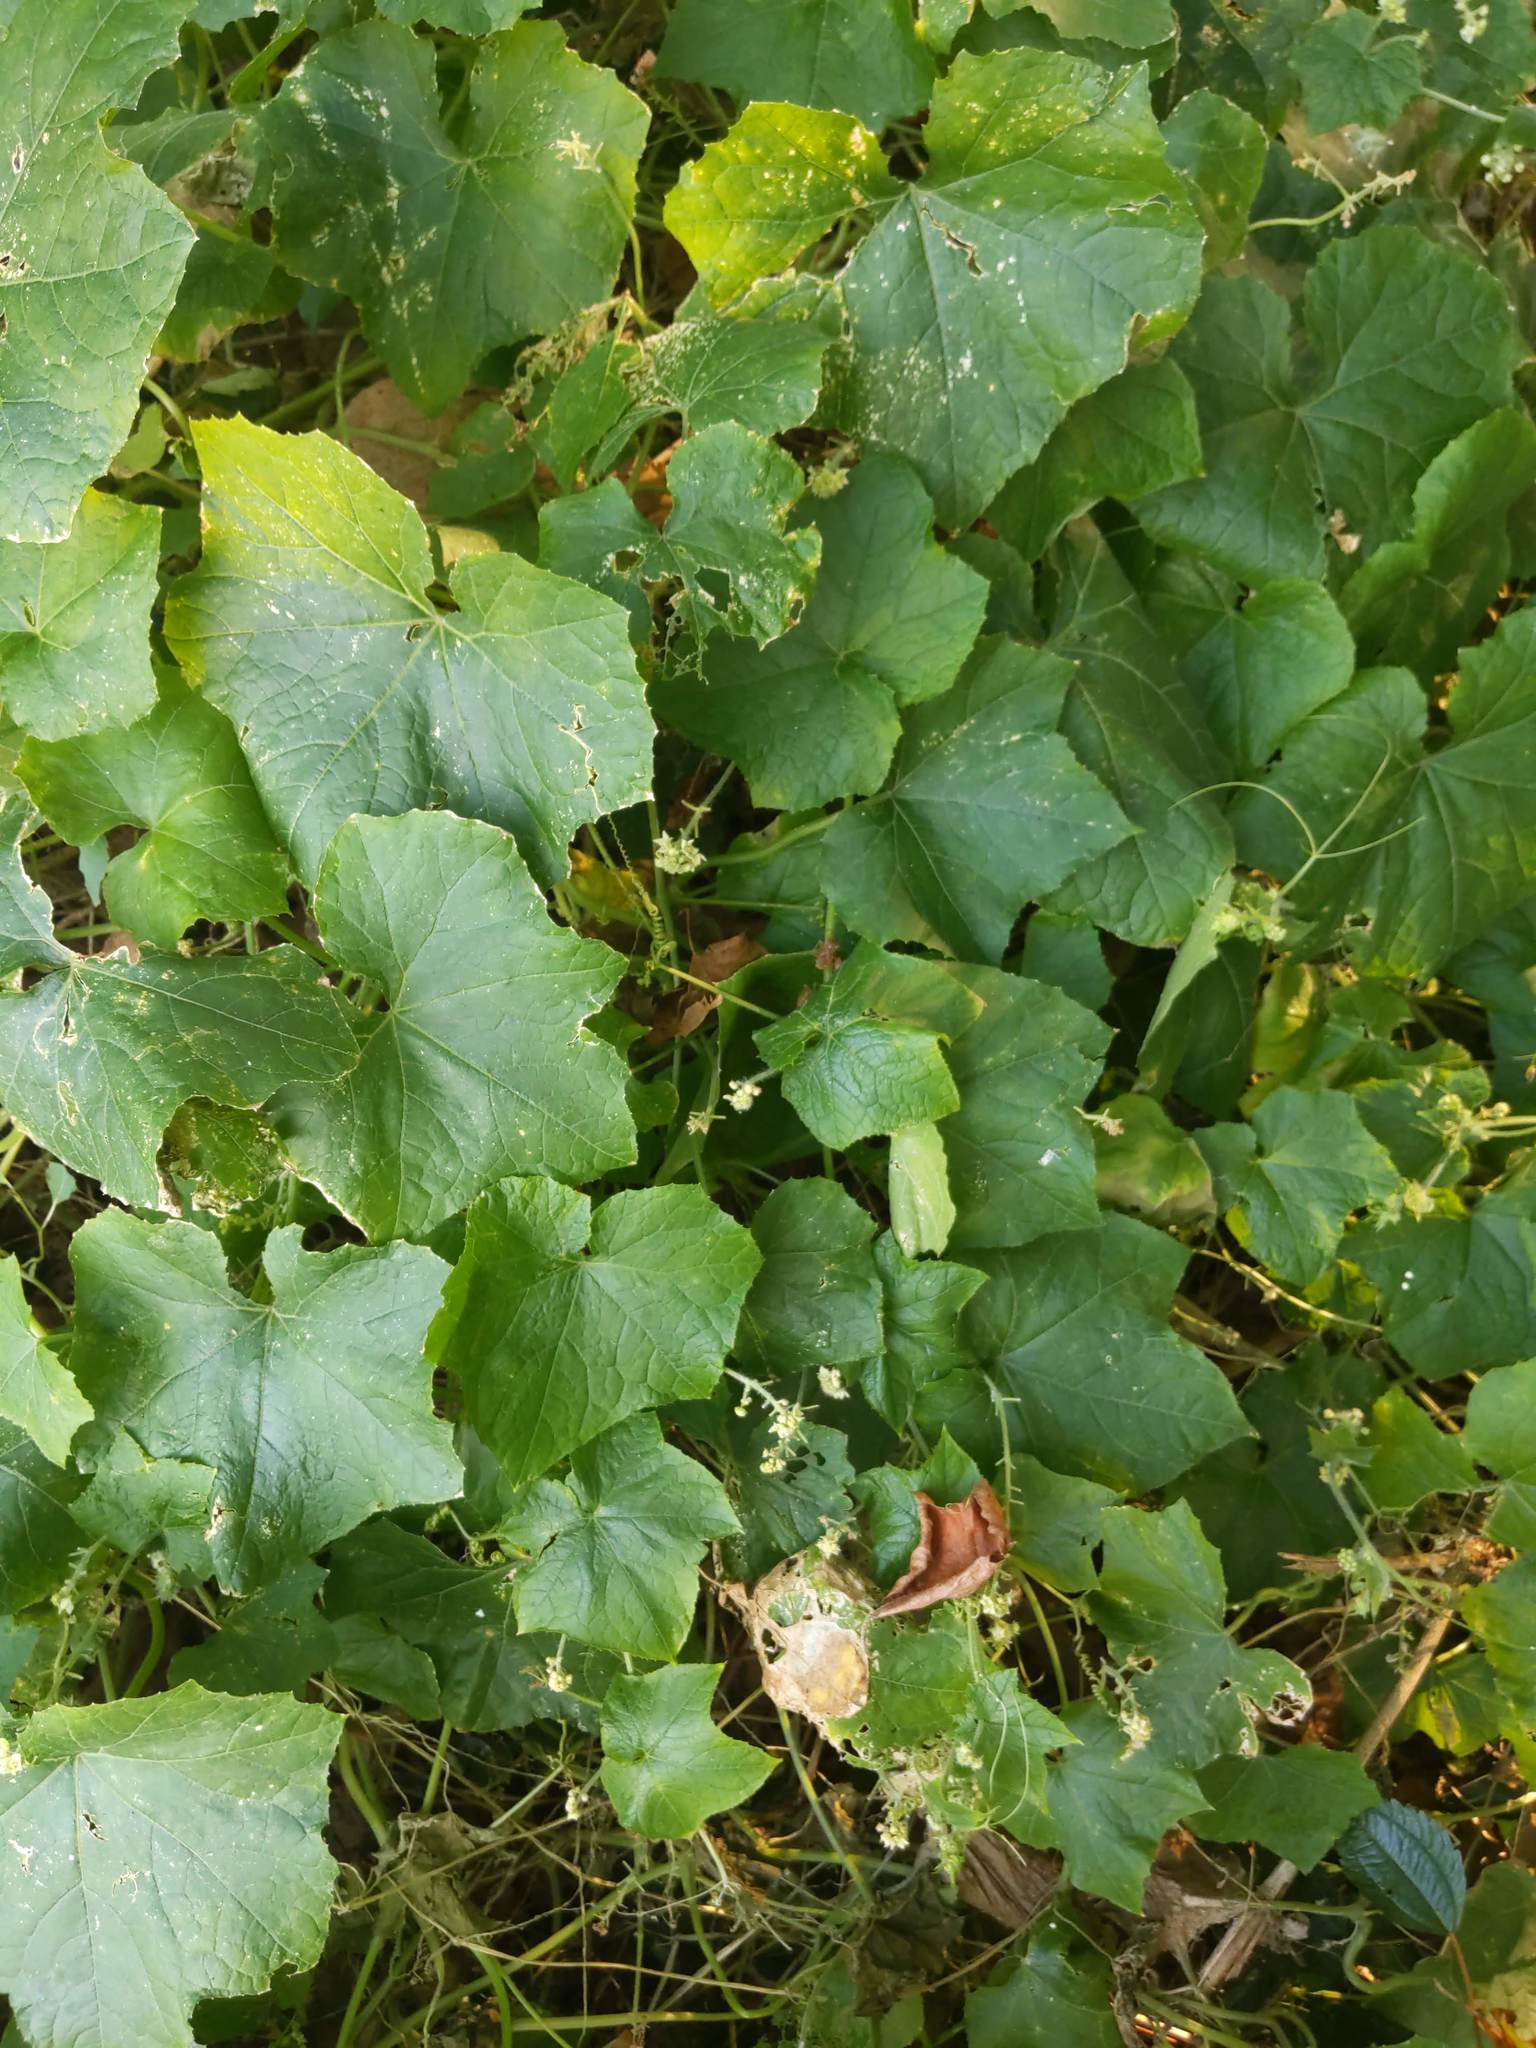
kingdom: Plantae
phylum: Tracheophyta
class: Magnoliopsida
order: Cucurbitales
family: Cucurbitaceae
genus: Sicyos
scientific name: Sicyos angulatus
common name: Angled burr cucumber
